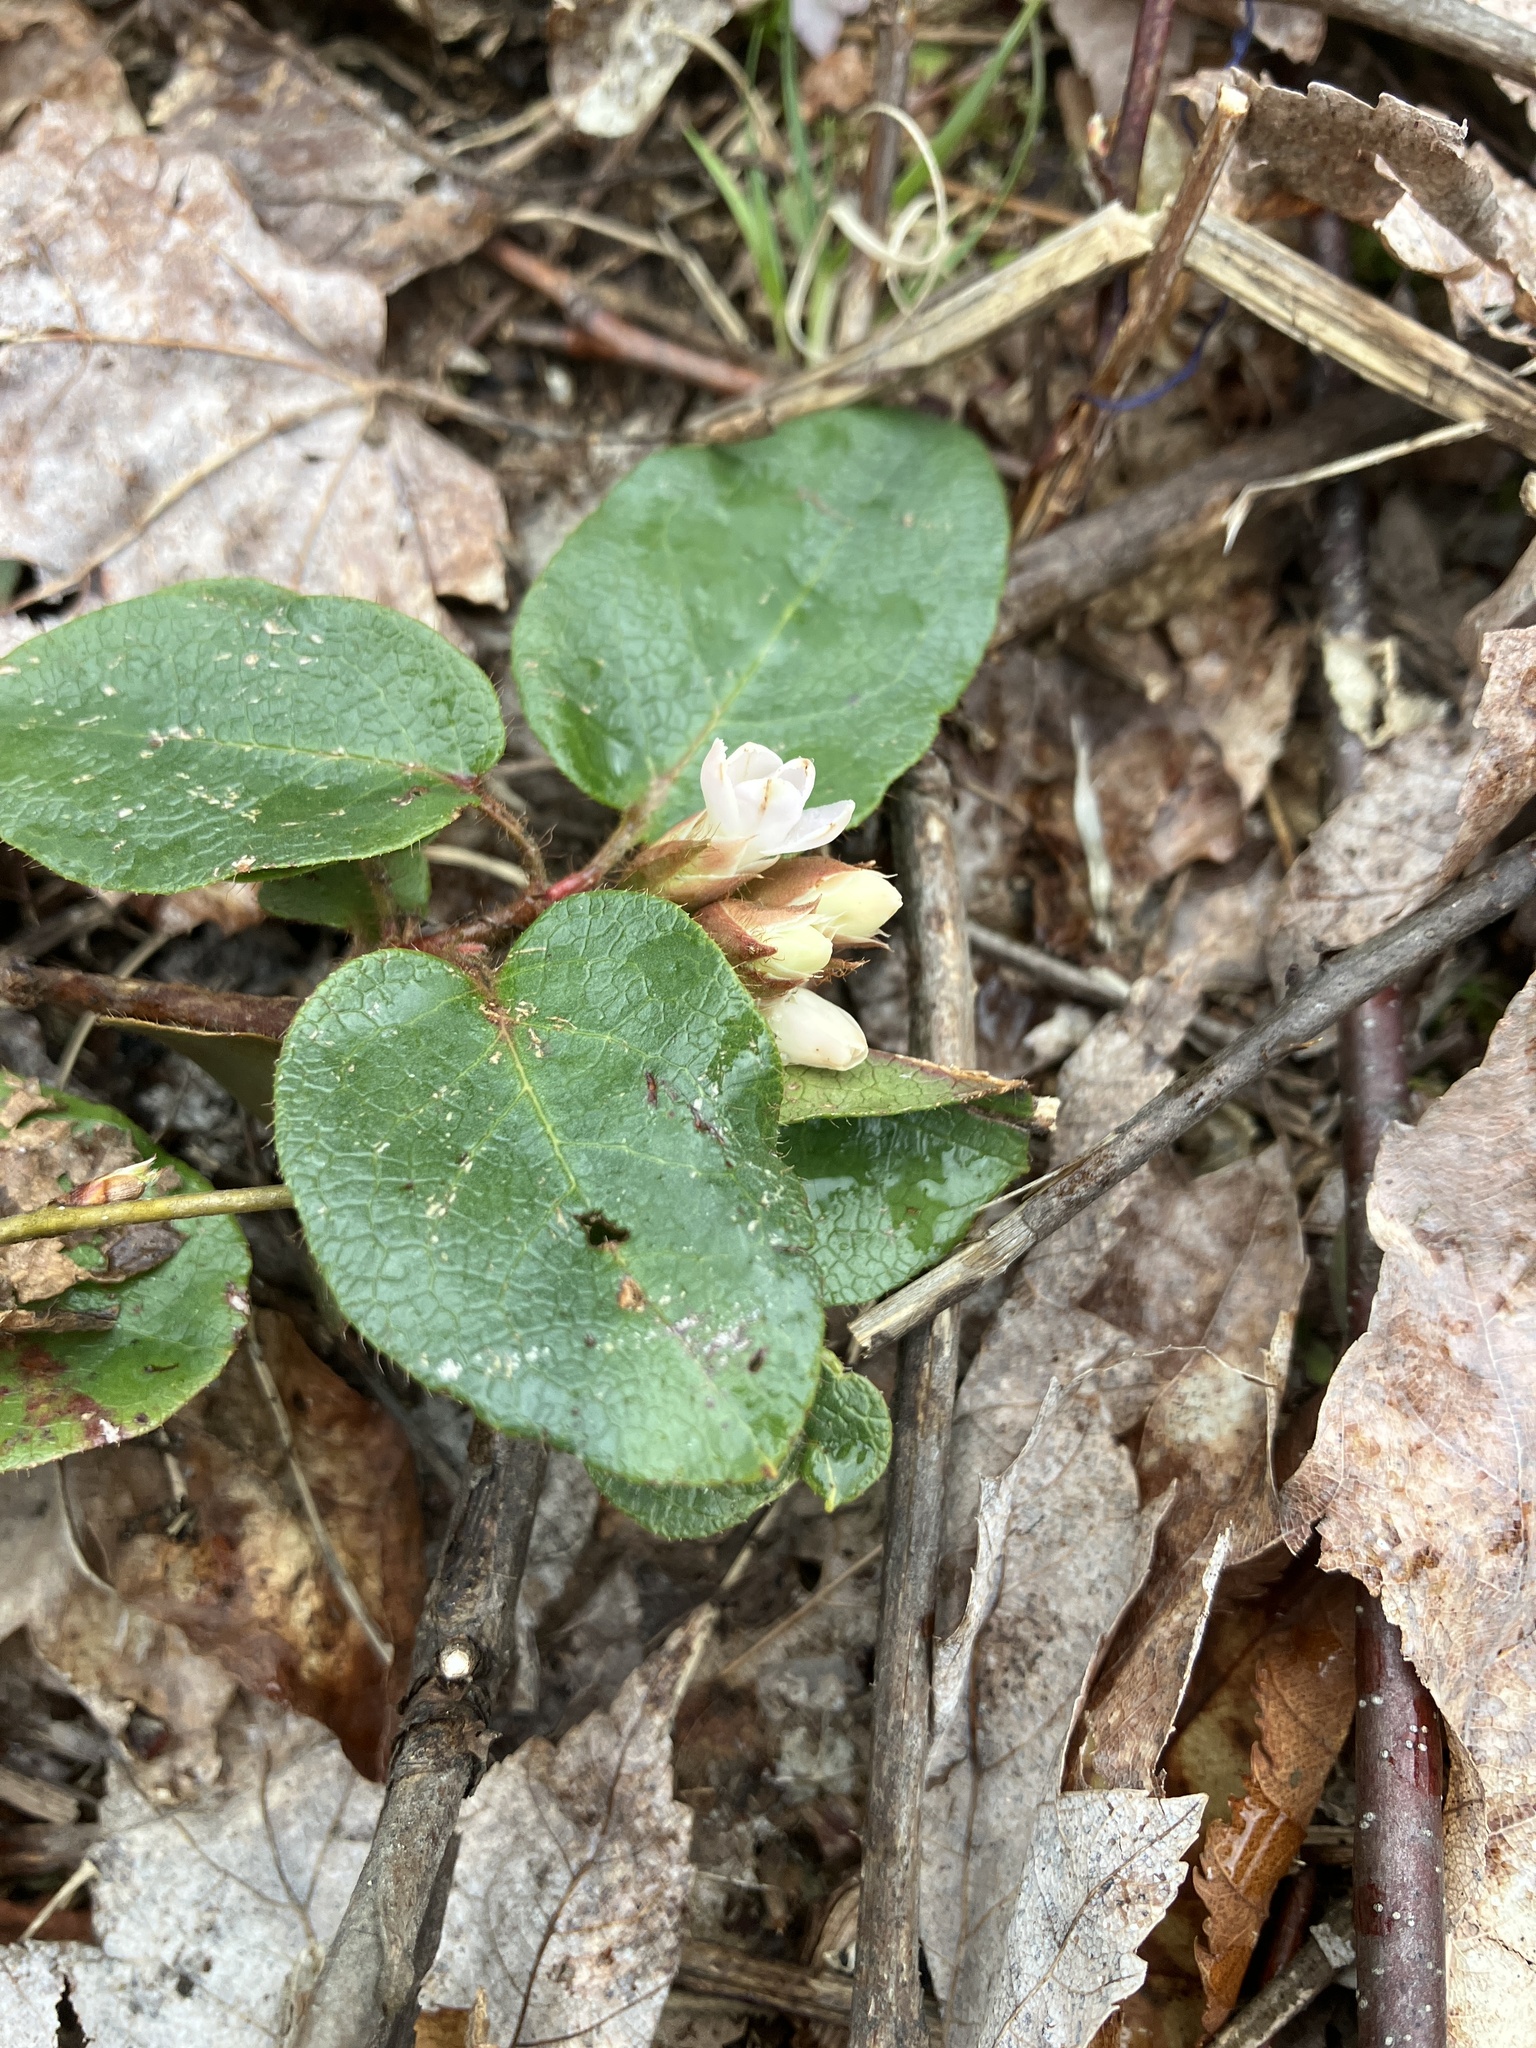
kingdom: Plantae
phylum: Tracheophyta
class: Magnoliopsida
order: Ericales
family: Ericaceae
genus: Epigaea
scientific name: Epigaea repens
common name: Gravelroot
